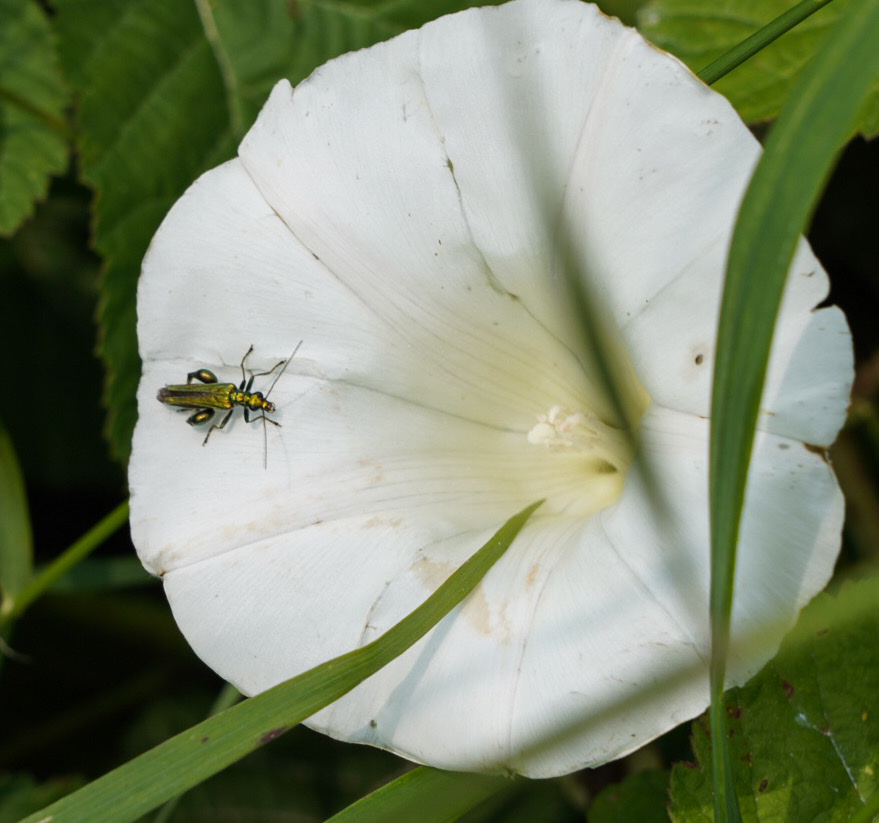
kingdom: Animalia
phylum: Arthropoda
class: Insecta
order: Coleoptera
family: Oedemeridae
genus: Oedemera
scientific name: Oedemera nobilis
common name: Swollen-thighed beetle
